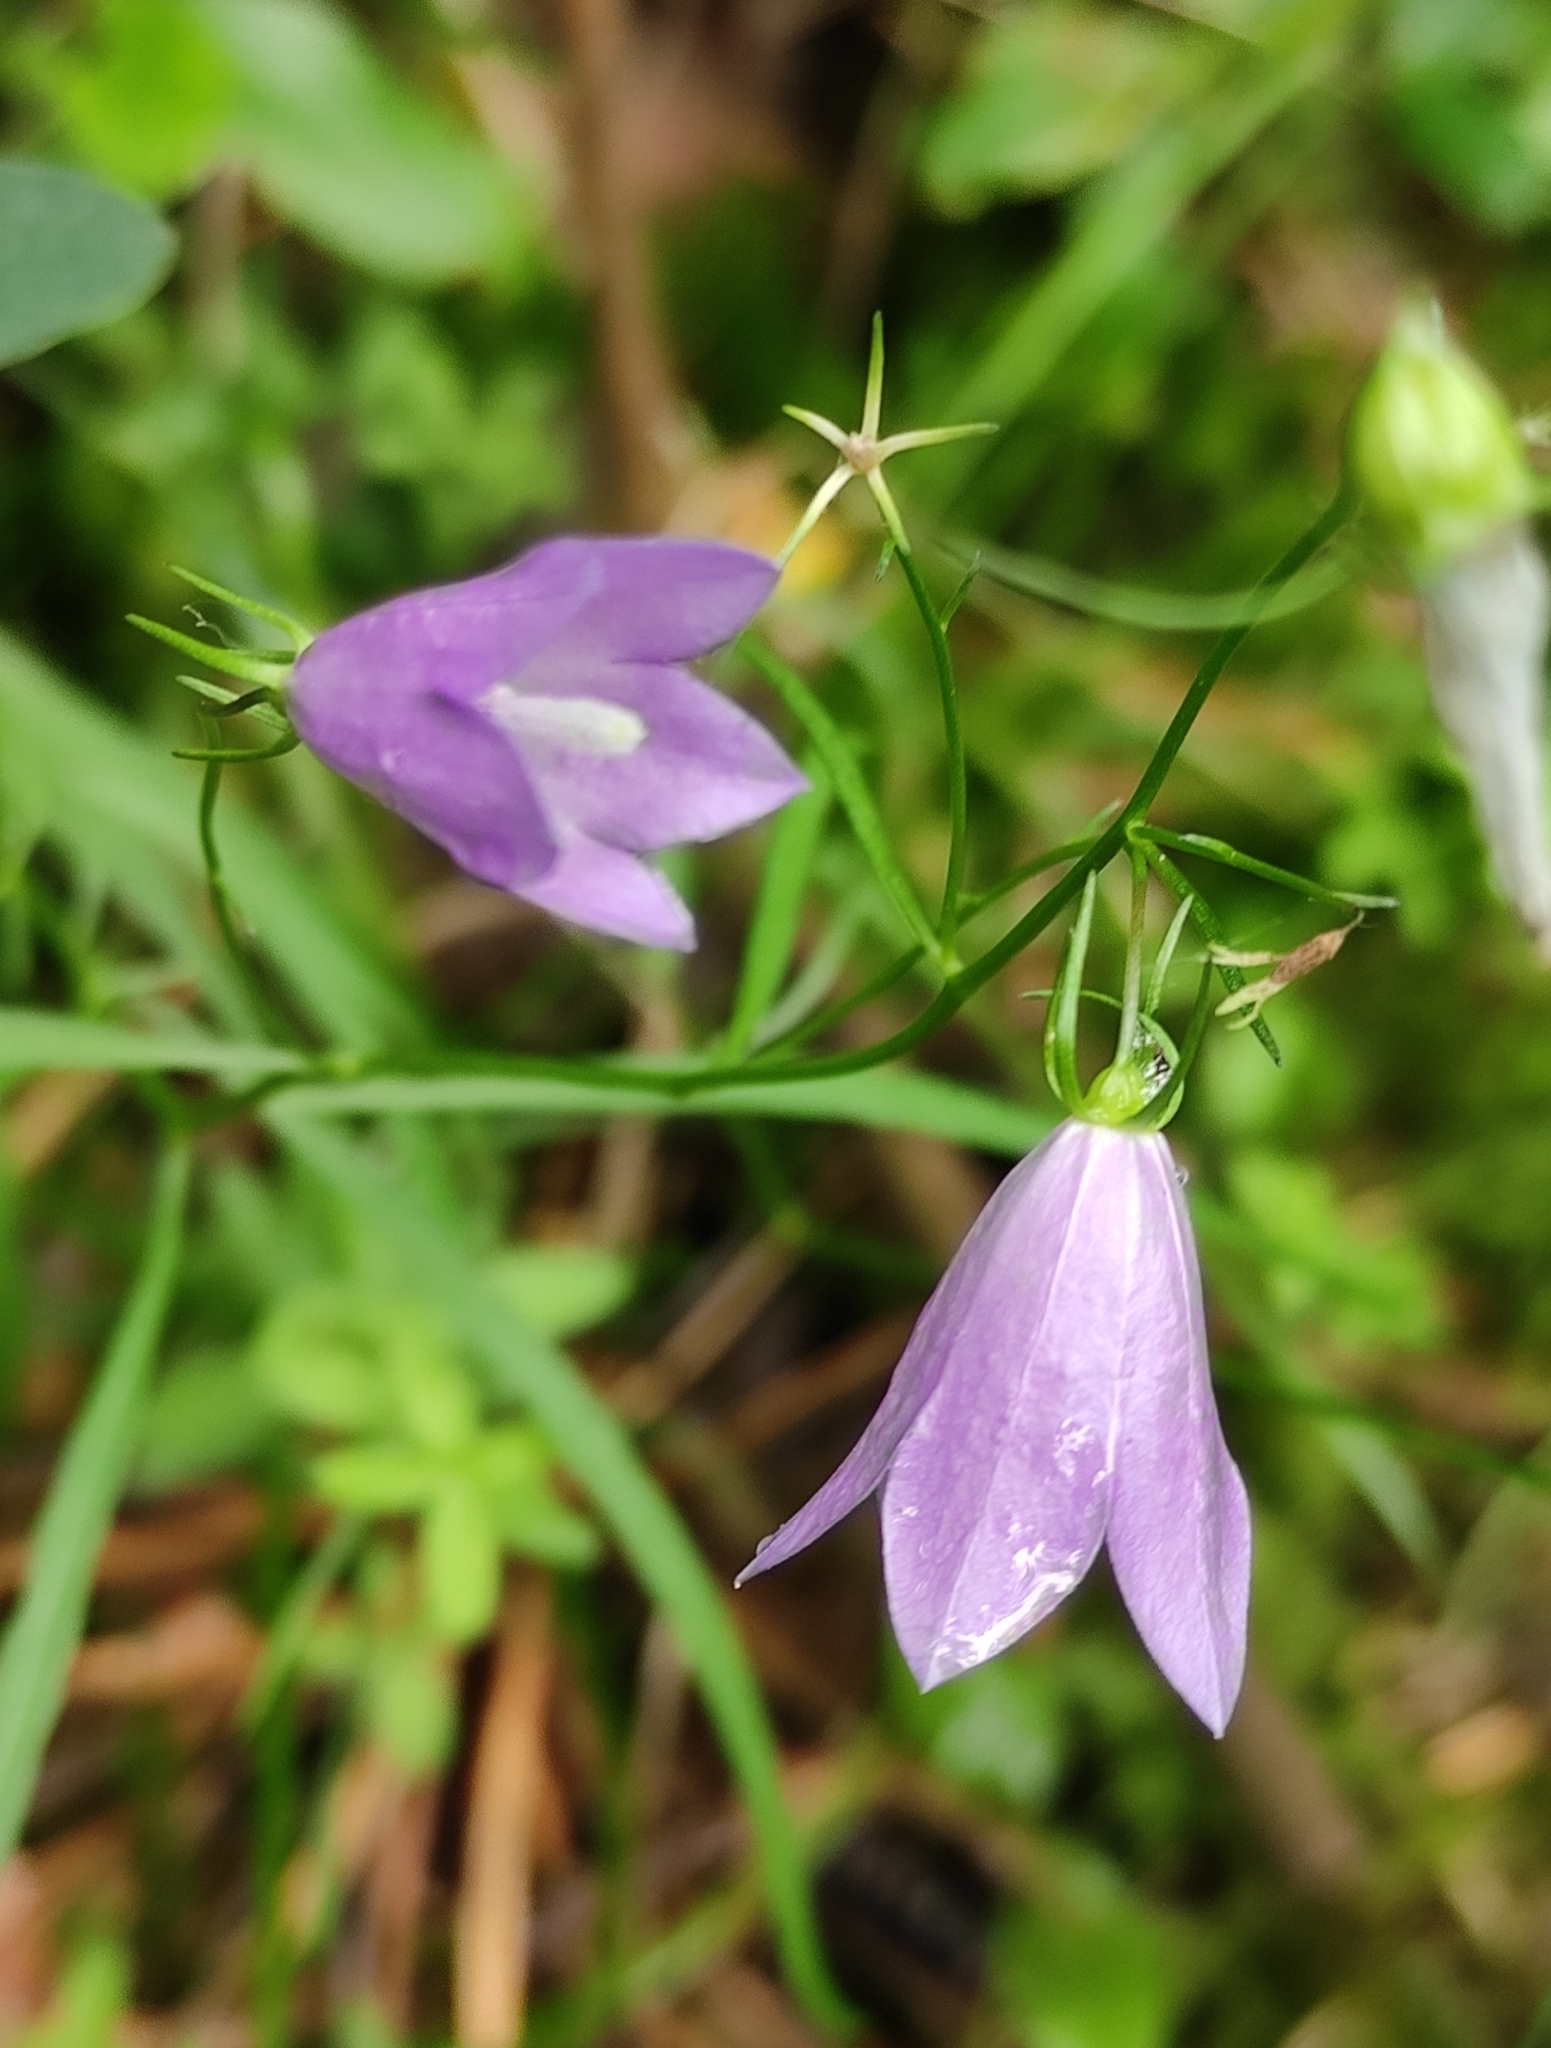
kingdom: Plantae
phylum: Tracheophyta
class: Magnoliopsida
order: Asterales
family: Campanulaceae
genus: Campanula
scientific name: Campanula rotundifolia
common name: Harebell
